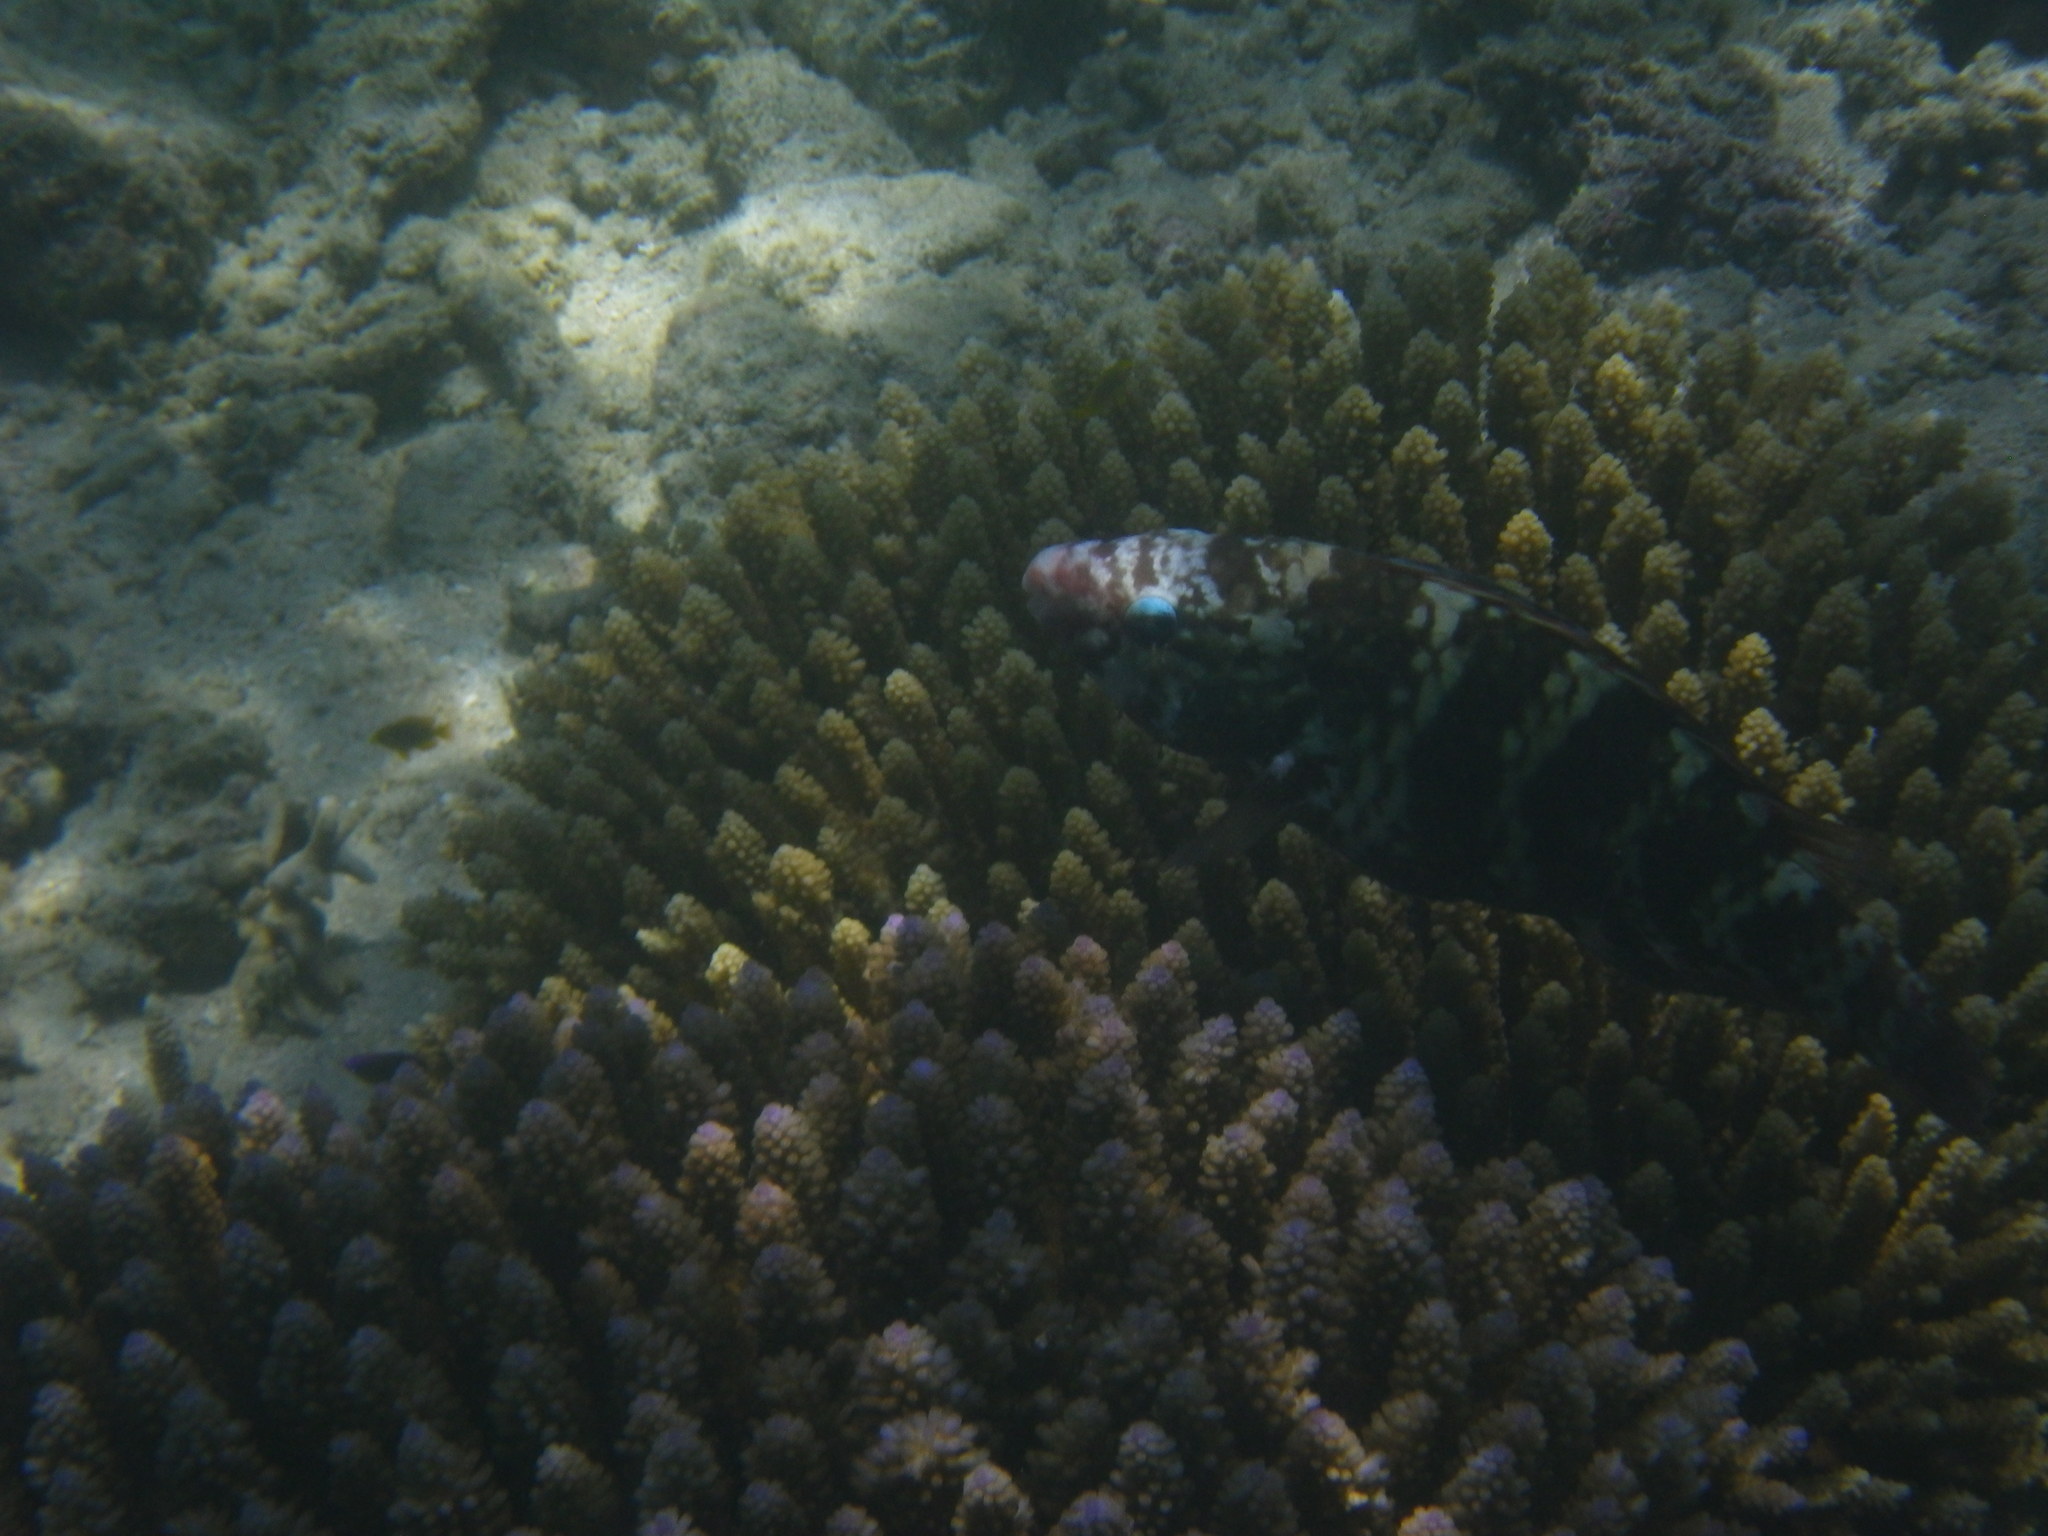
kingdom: Animalia
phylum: Chordata
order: Perciformes
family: Scaridae
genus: Scarus
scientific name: Scarus schlegeli
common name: Schlegel's parrotfish
